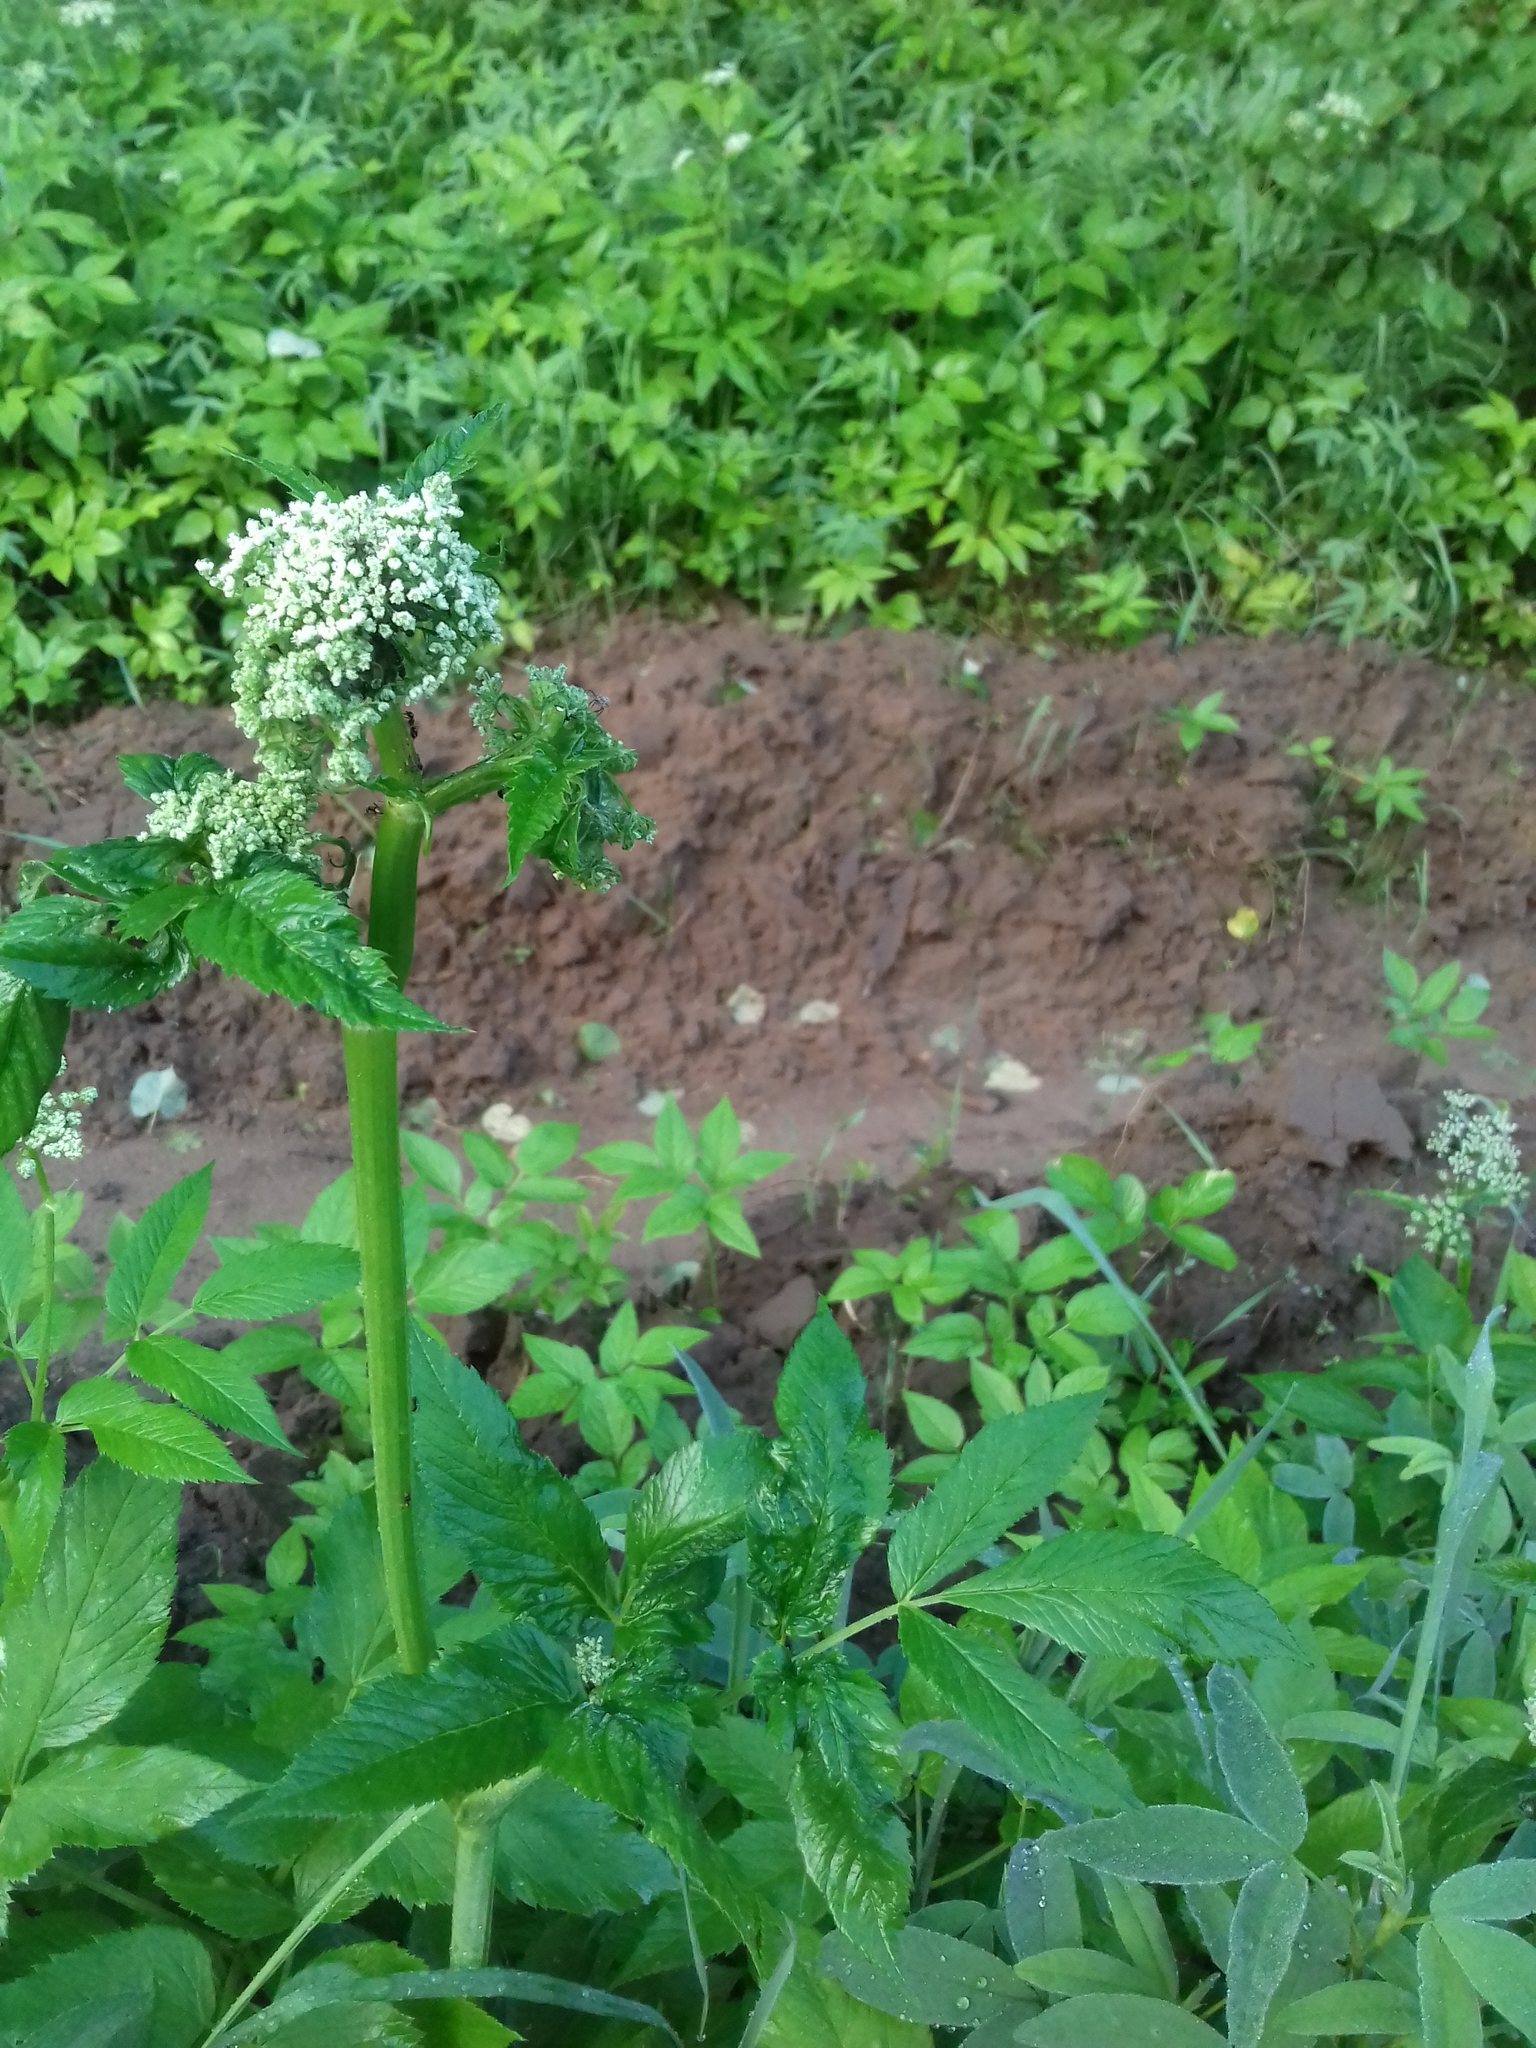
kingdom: Plantae
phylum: Tracheophyta
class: Magnoliopsida
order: Apiales
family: Apiaceae
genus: Aegopodium
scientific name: Aegopodium podagraria
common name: Ground-elder
